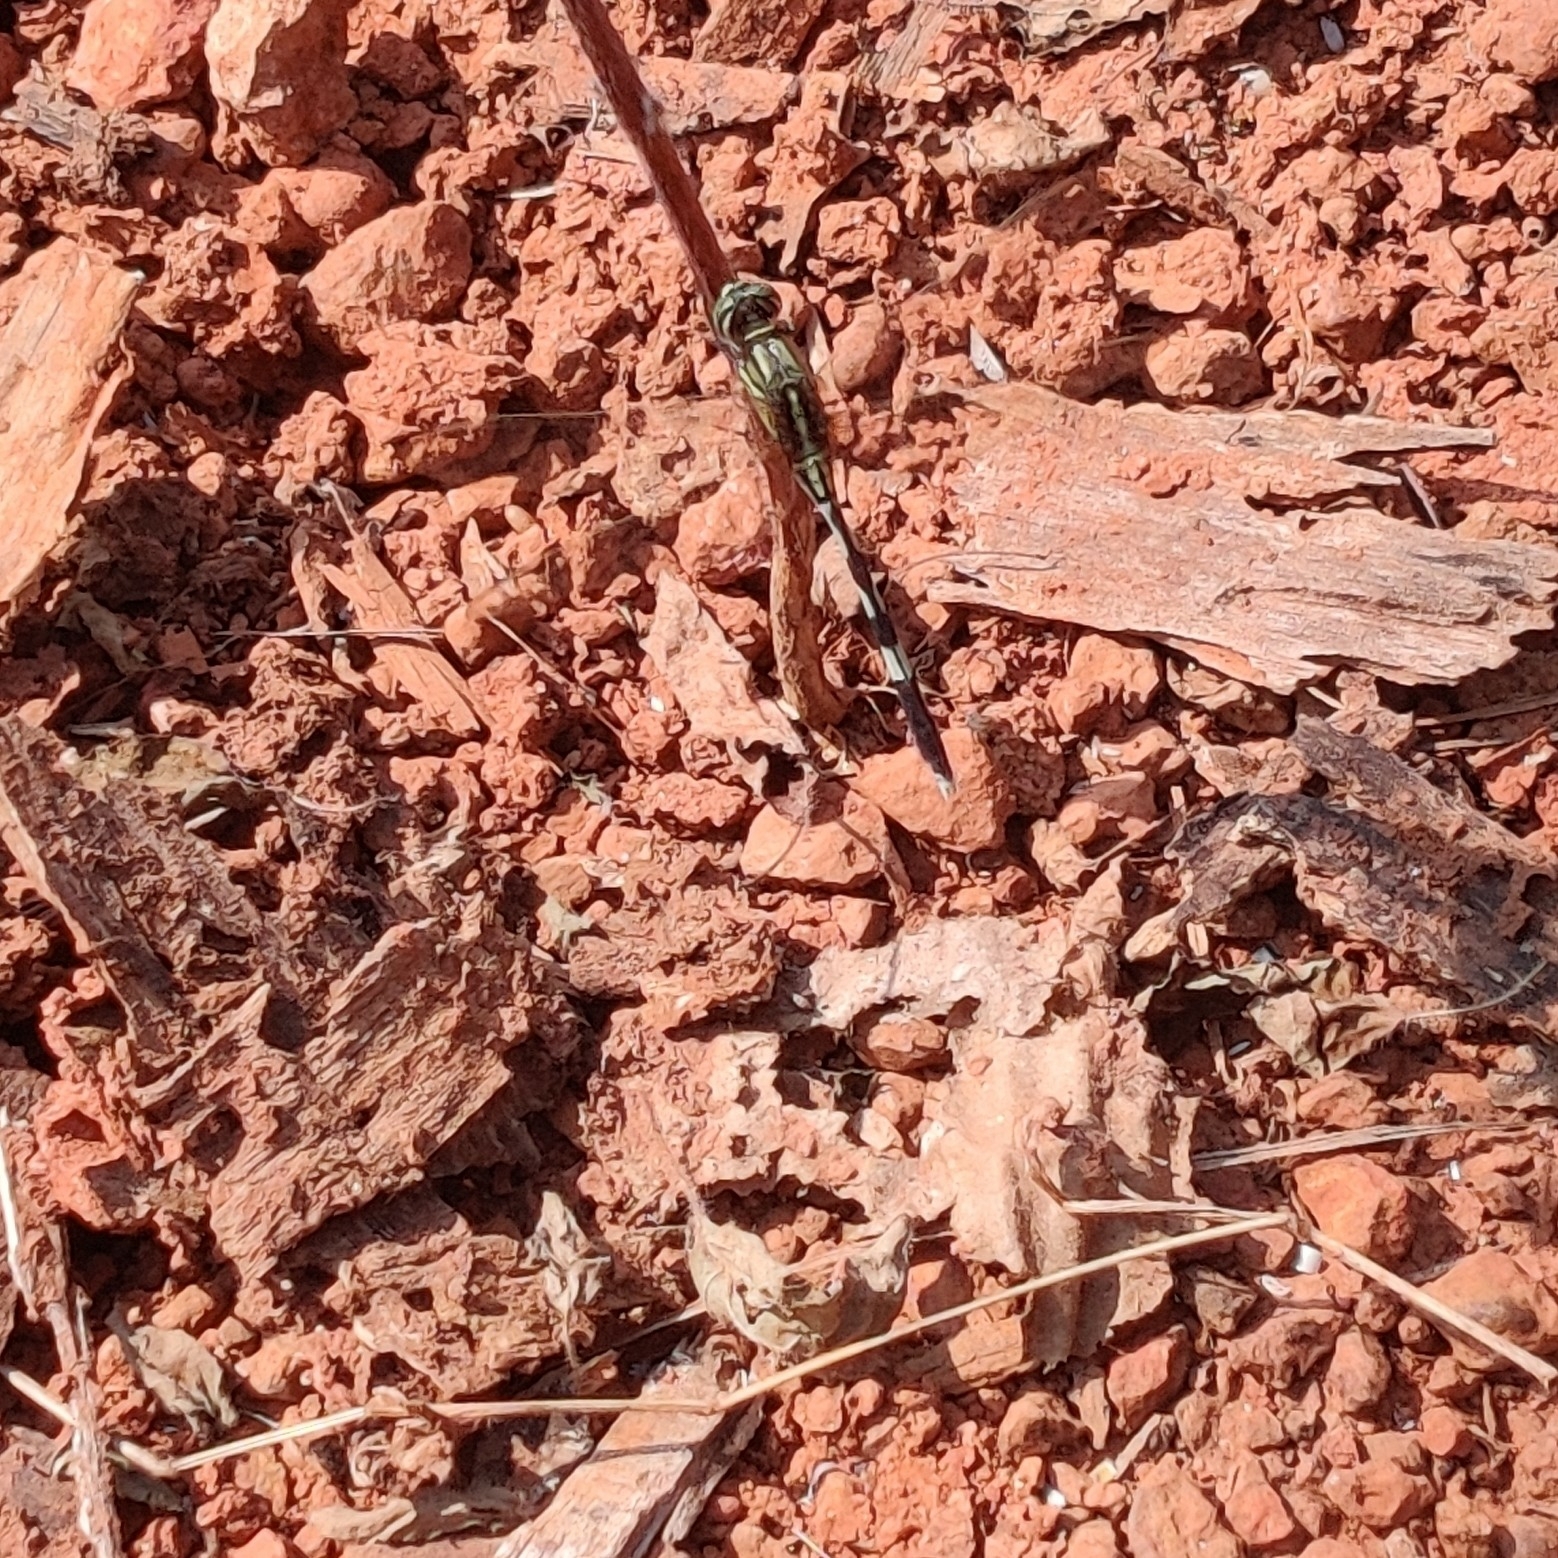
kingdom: Animalia
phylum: Arthropoda
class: Insecta
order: Odonata
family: Libellulidae
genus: Orthetrum
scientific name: Orthetrum sabina
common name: Slender skimmer
